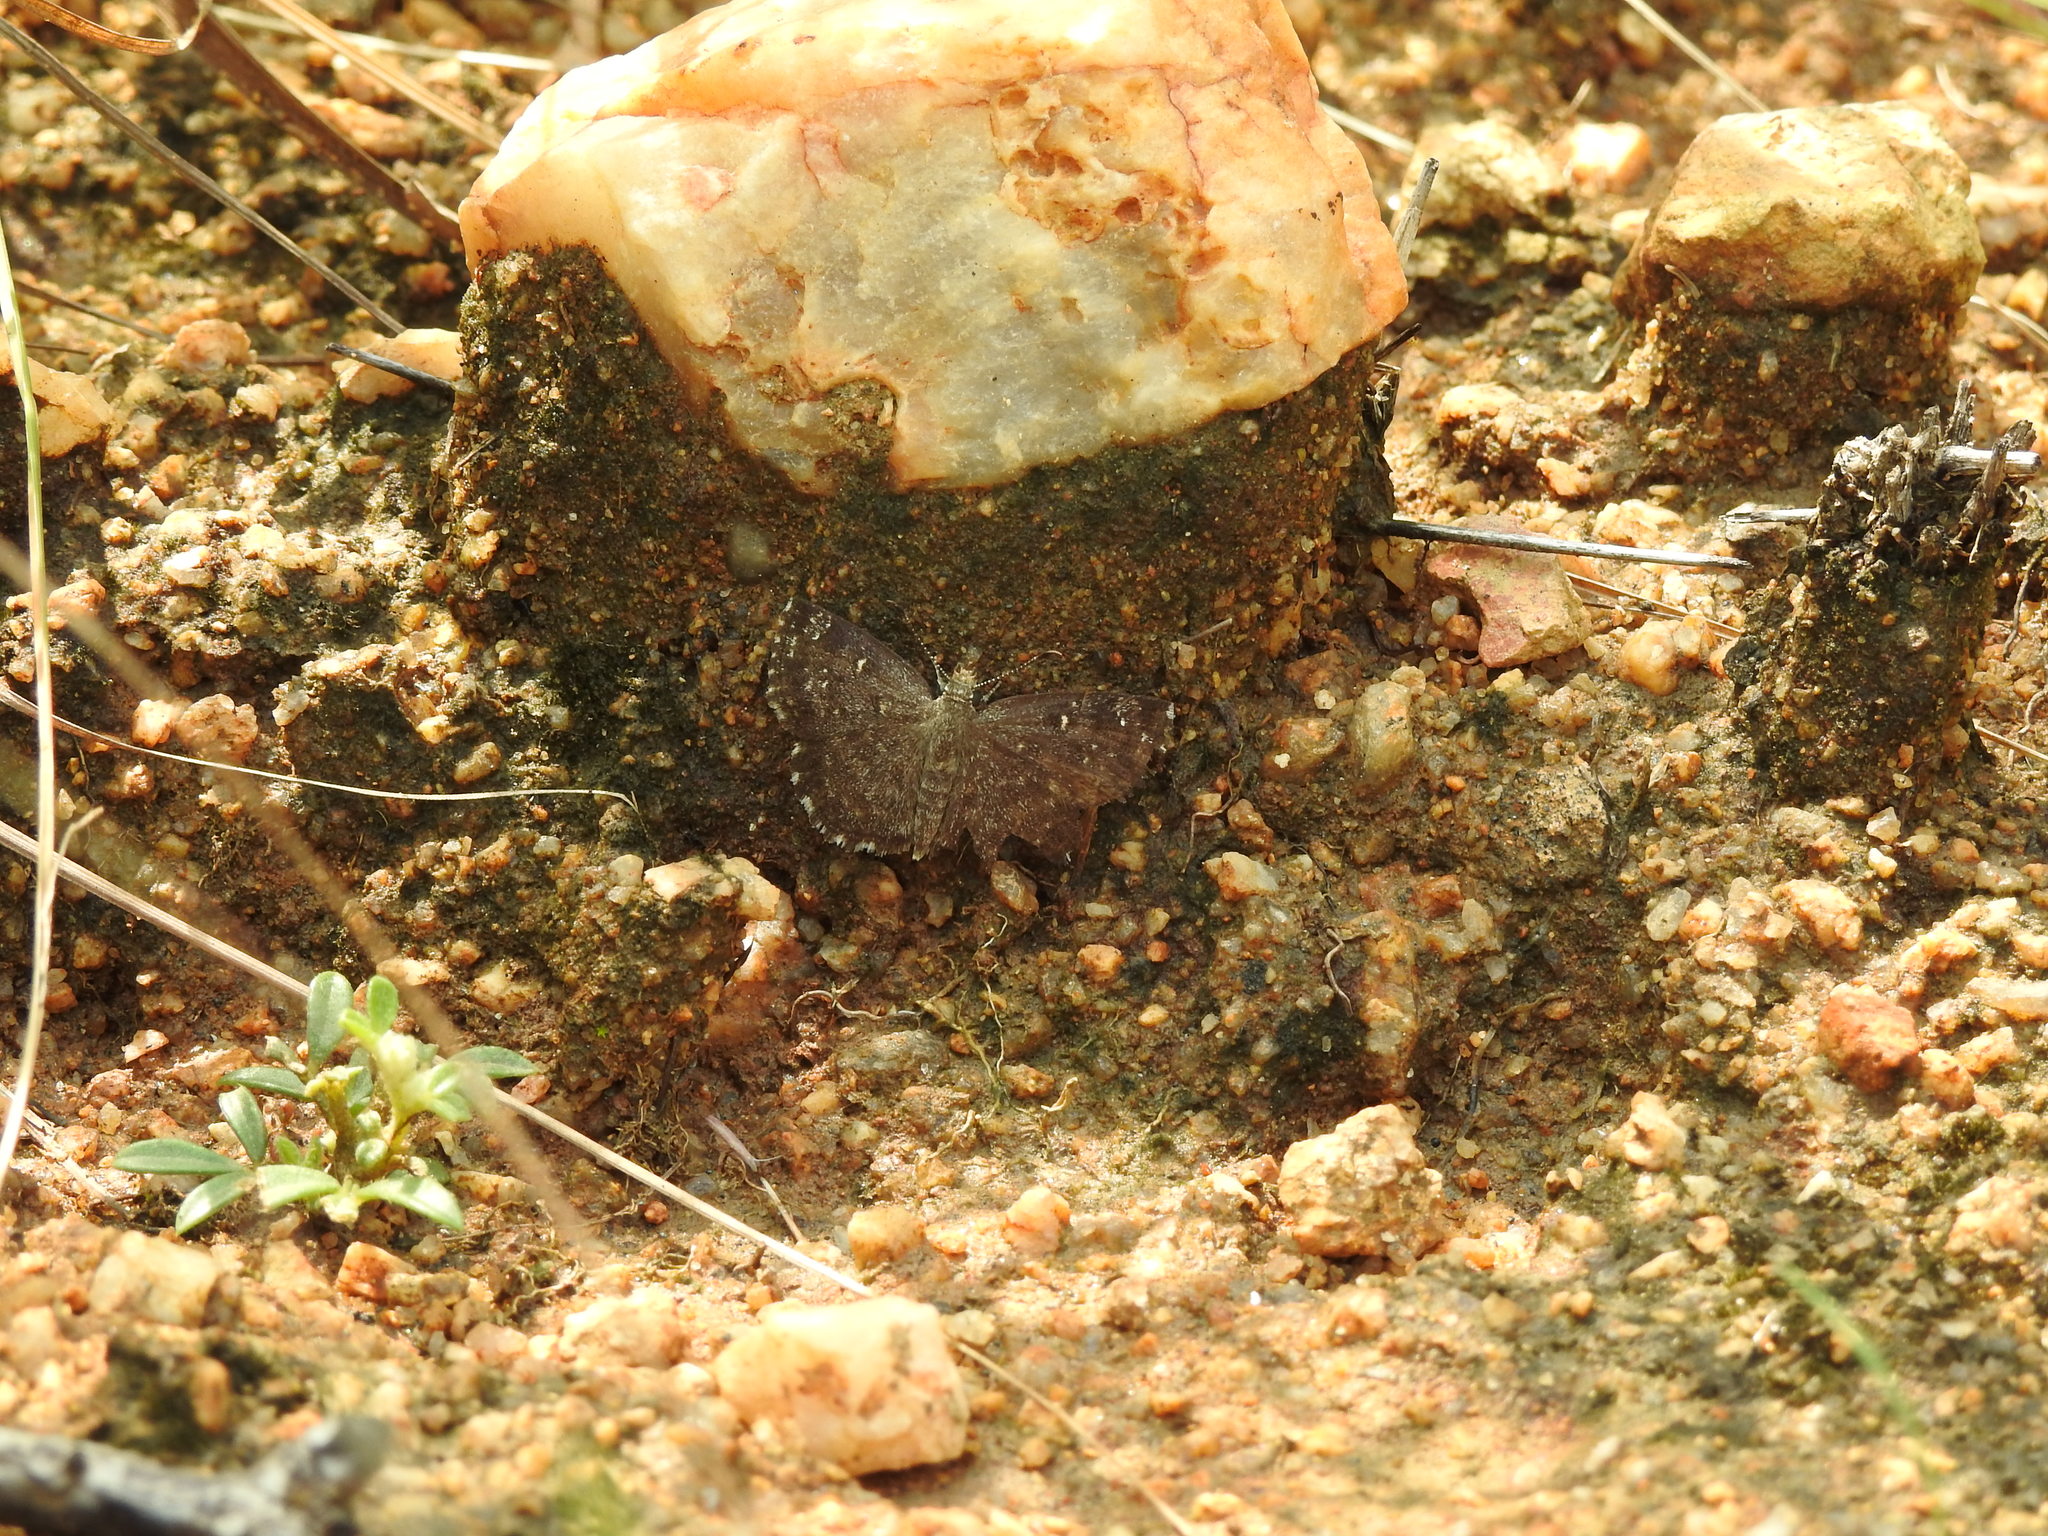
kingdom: Animalia
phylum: Arthropoda
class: Insecta
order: Lepidoptera
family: Hesperiidae
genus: Sarangesa
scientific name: Sarangesa purendra
